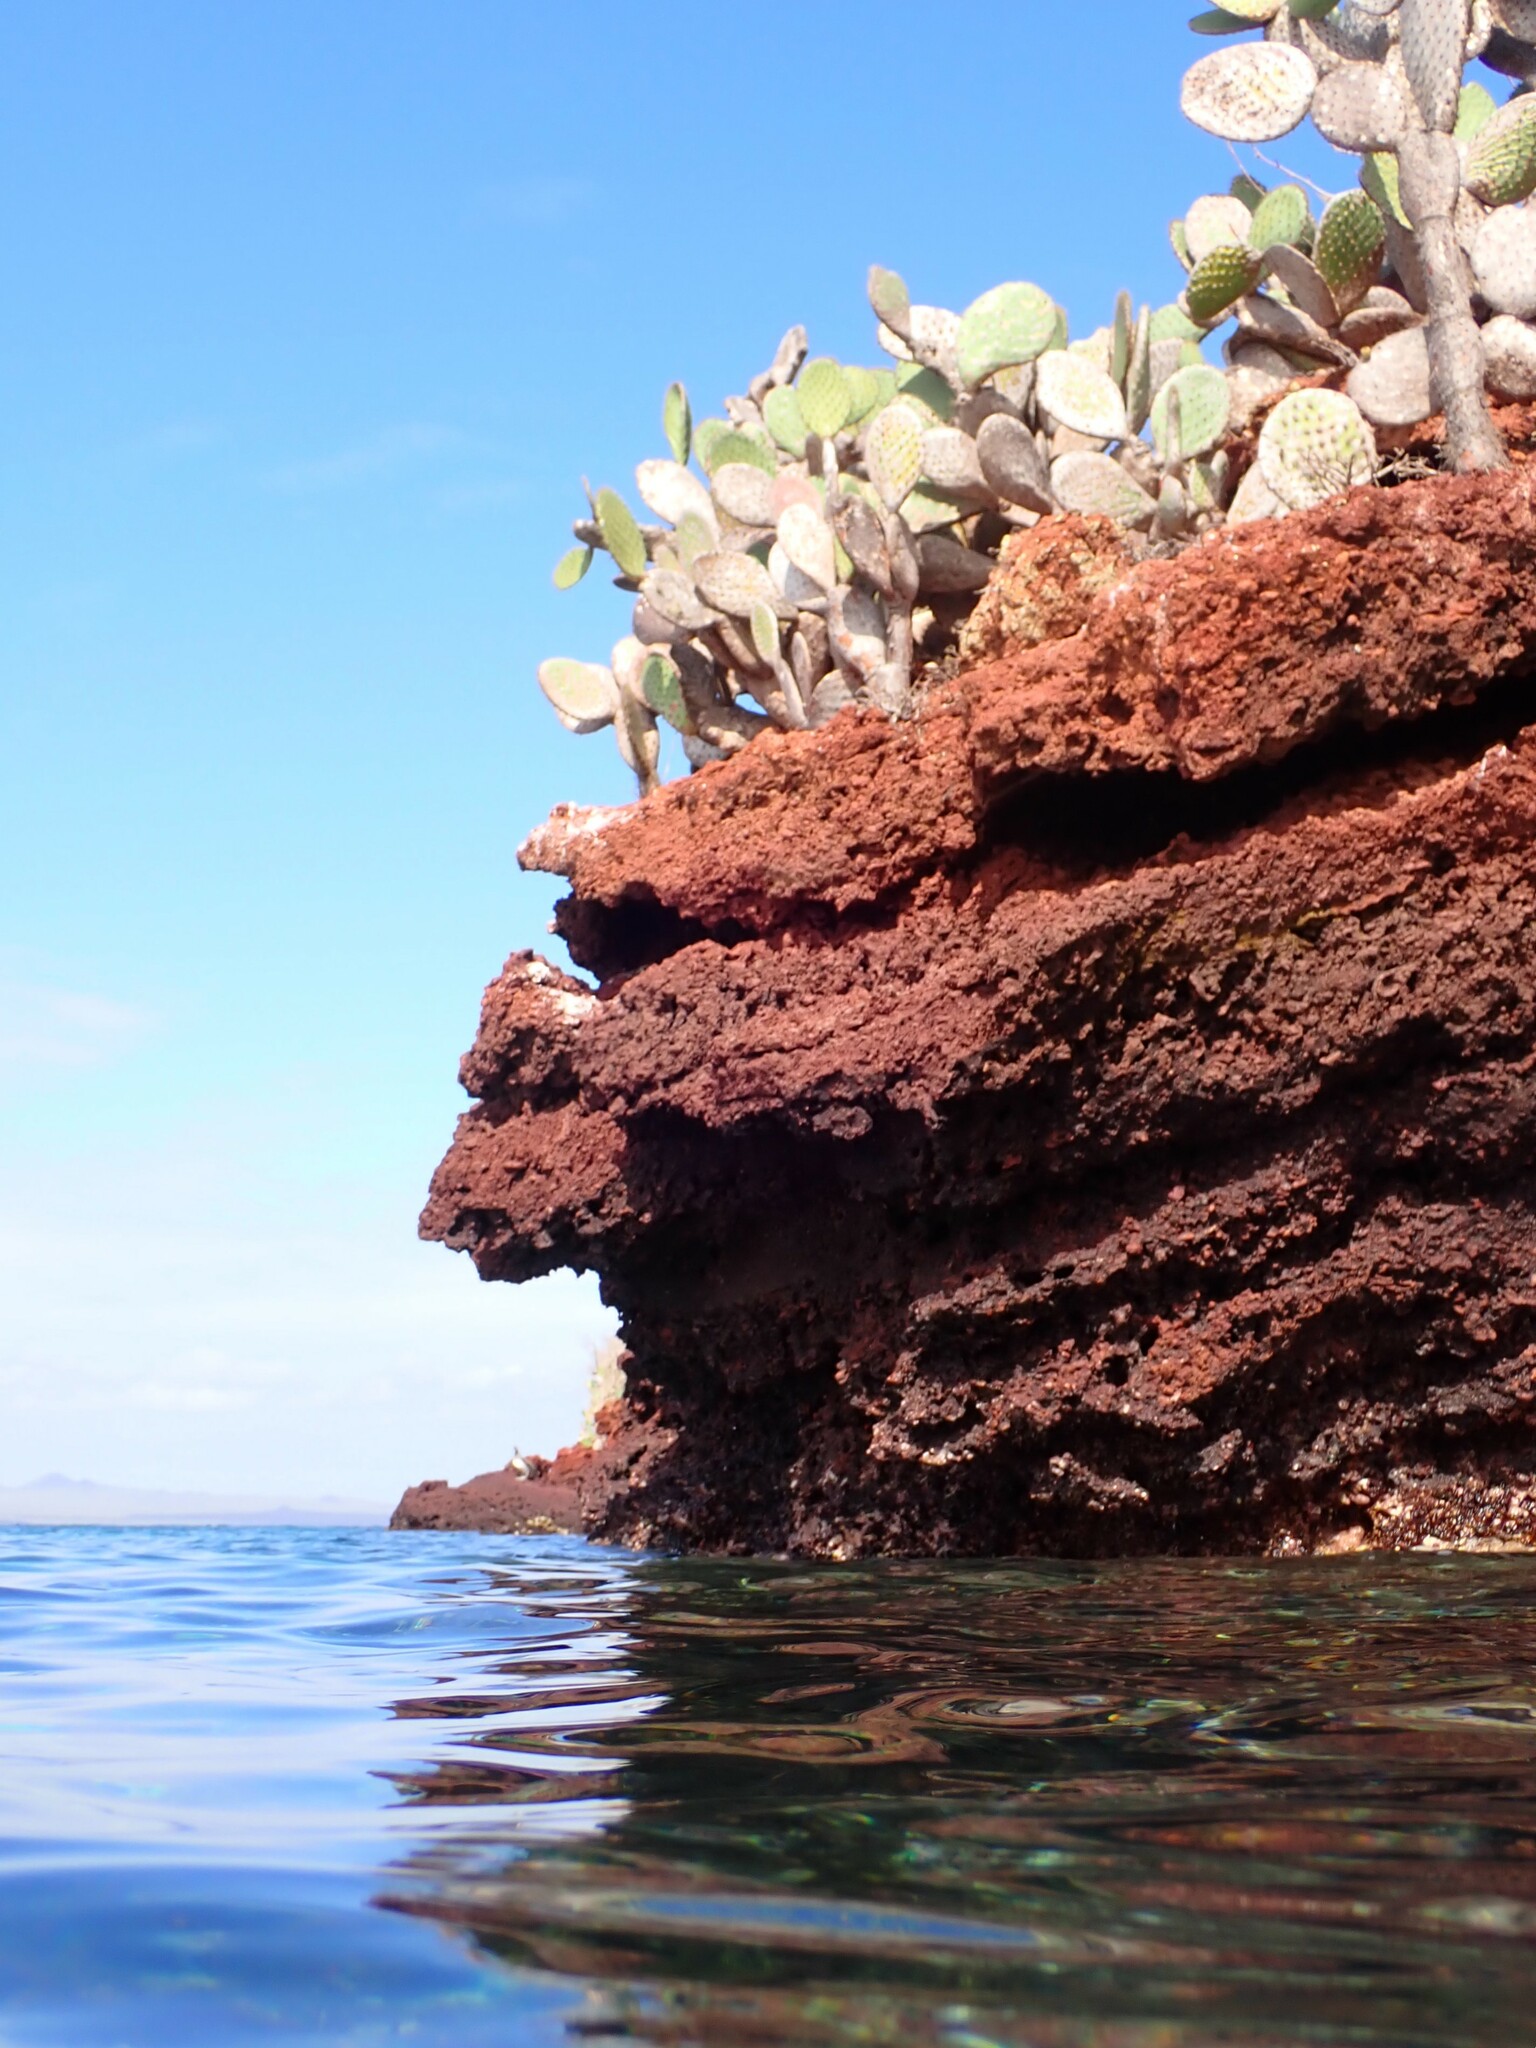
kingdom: Plantae
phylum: Tracheophyta
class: Magnoliopsida
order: Caryophyllales
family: Cactaceae
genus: Opuntia
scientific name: Opuntia galapageia
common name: Galápagos prickly pear
